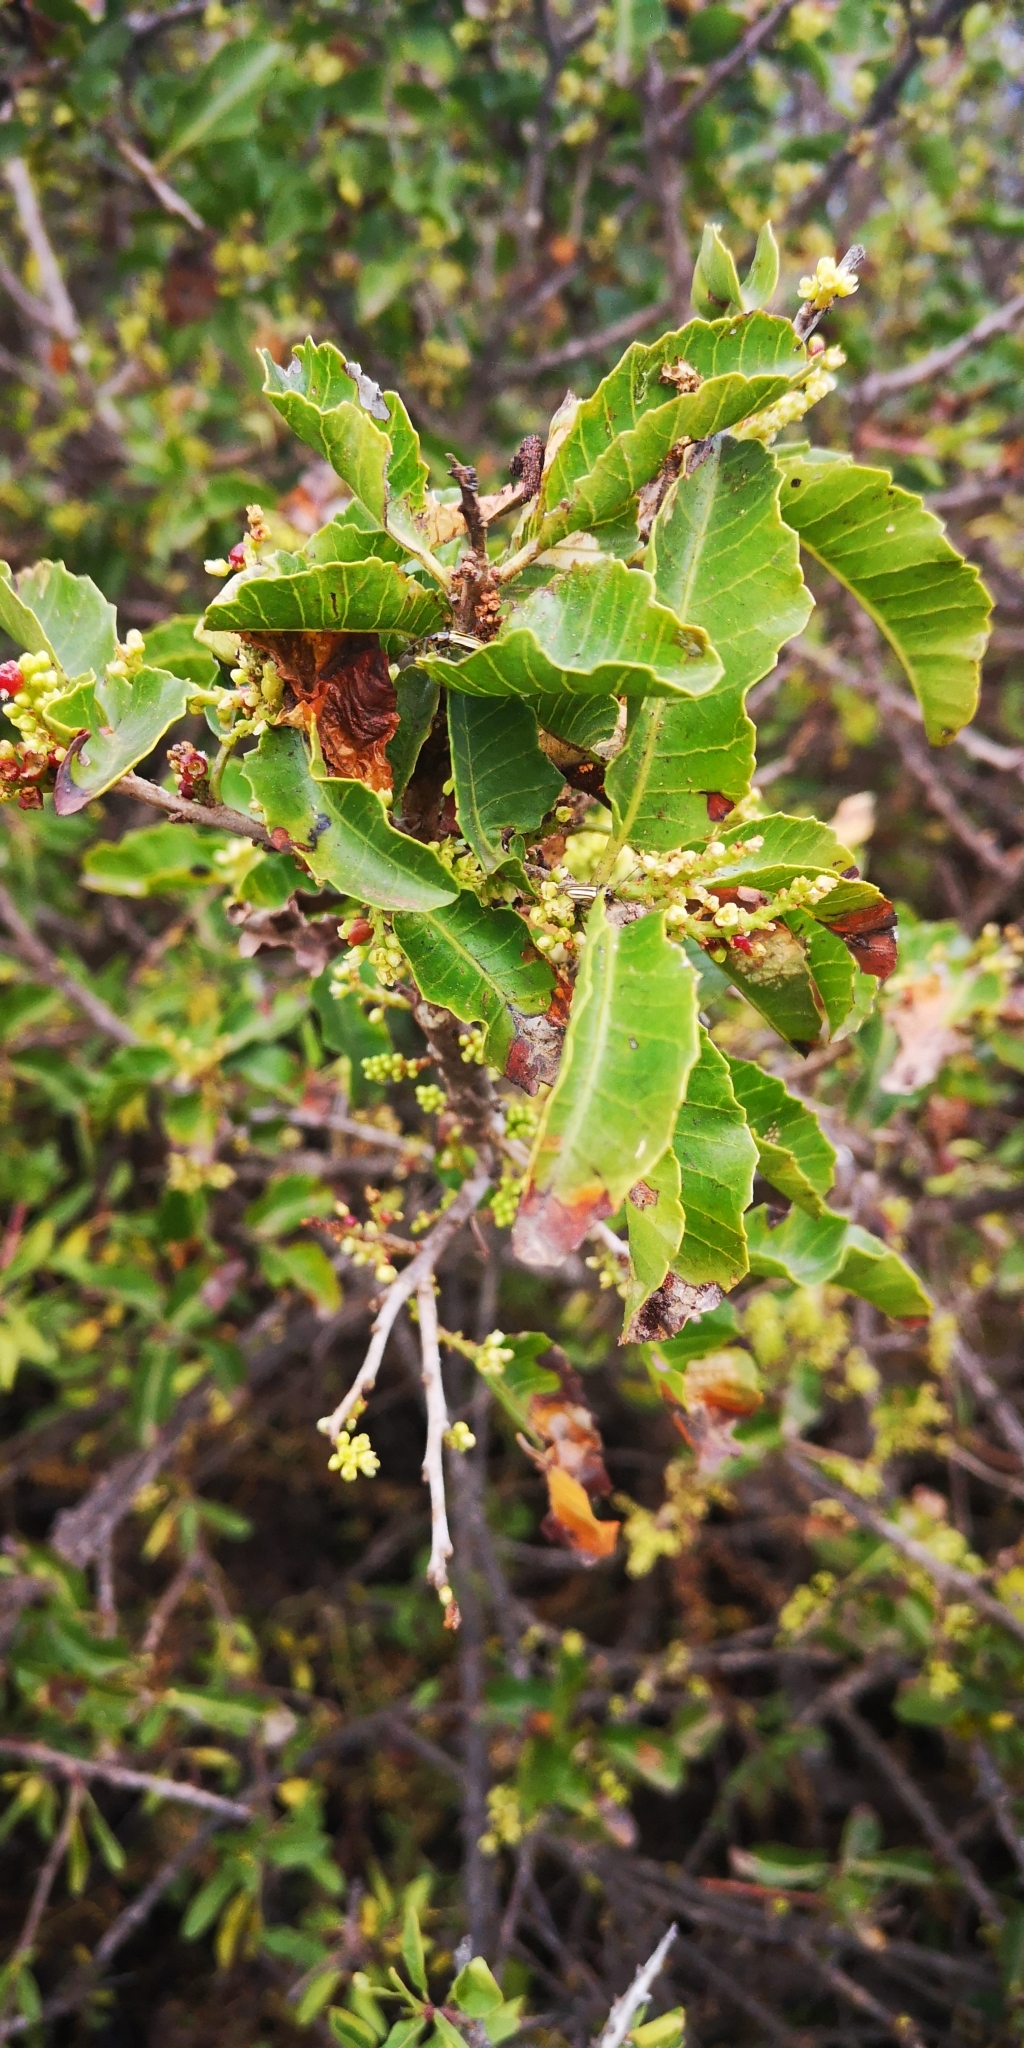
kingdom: Plantae
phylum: Tracheophyta
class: Magnoliopsida
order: Sapindales
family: Anacardiaceae
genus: Schinus
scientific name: Schinus latifolia
